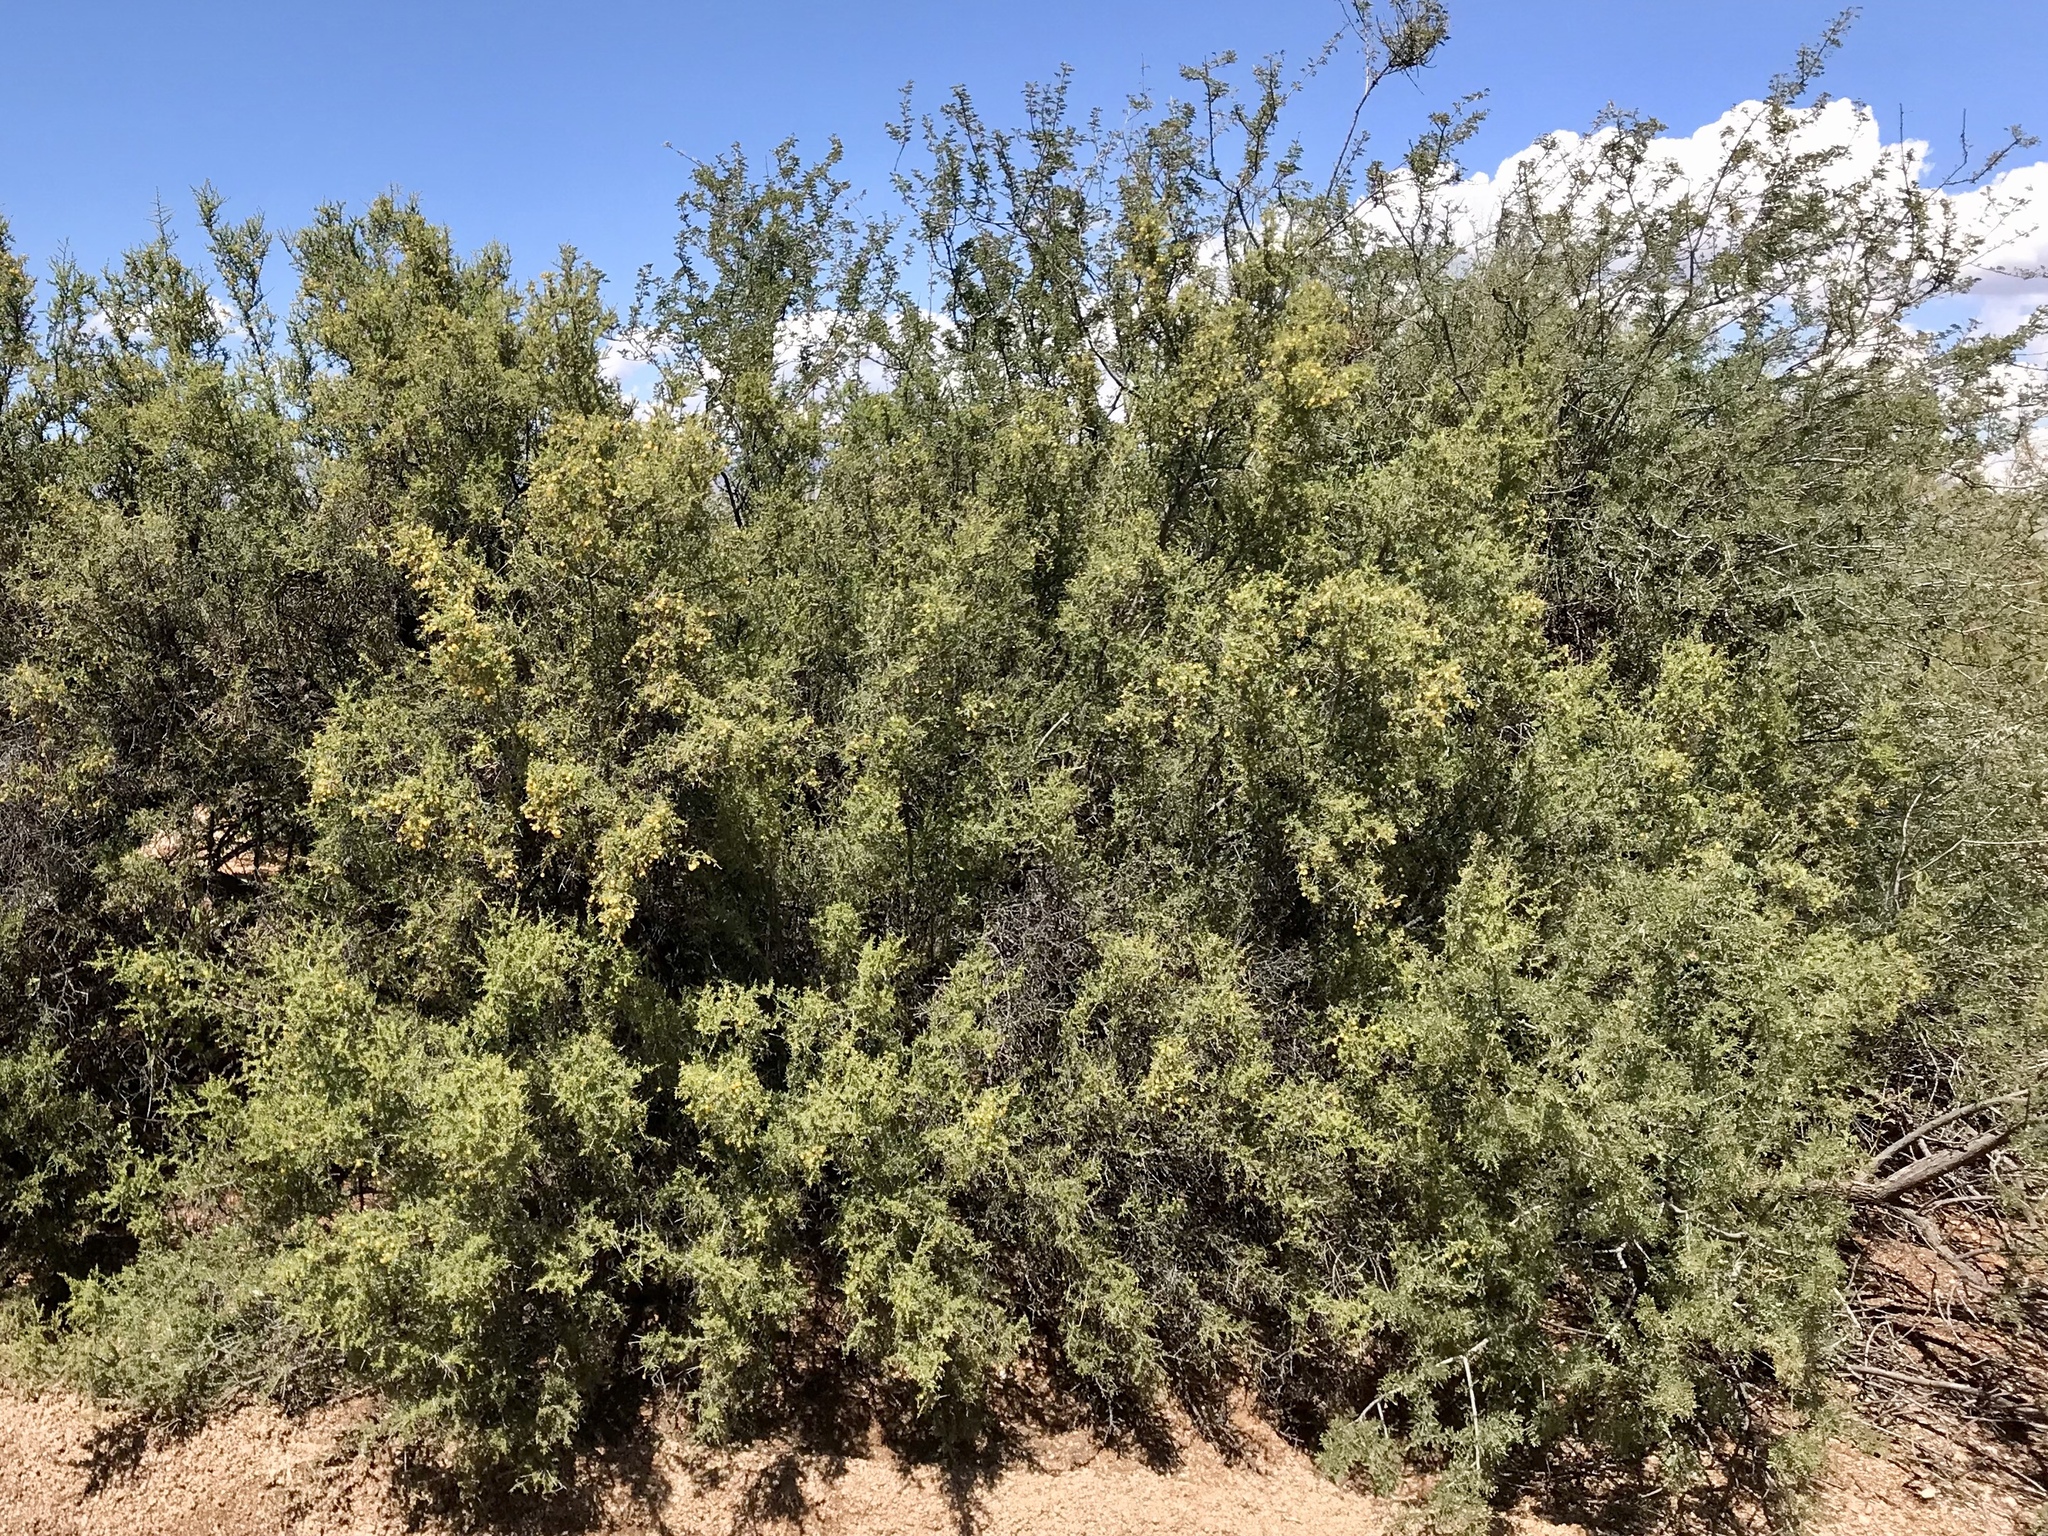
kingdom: Plantae
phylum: Tracheophyta
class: Magnoliopsida
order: Fabales
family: Fabaceae
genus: Vachellia
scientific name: Vachellia constricta
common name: Mescat acacia
